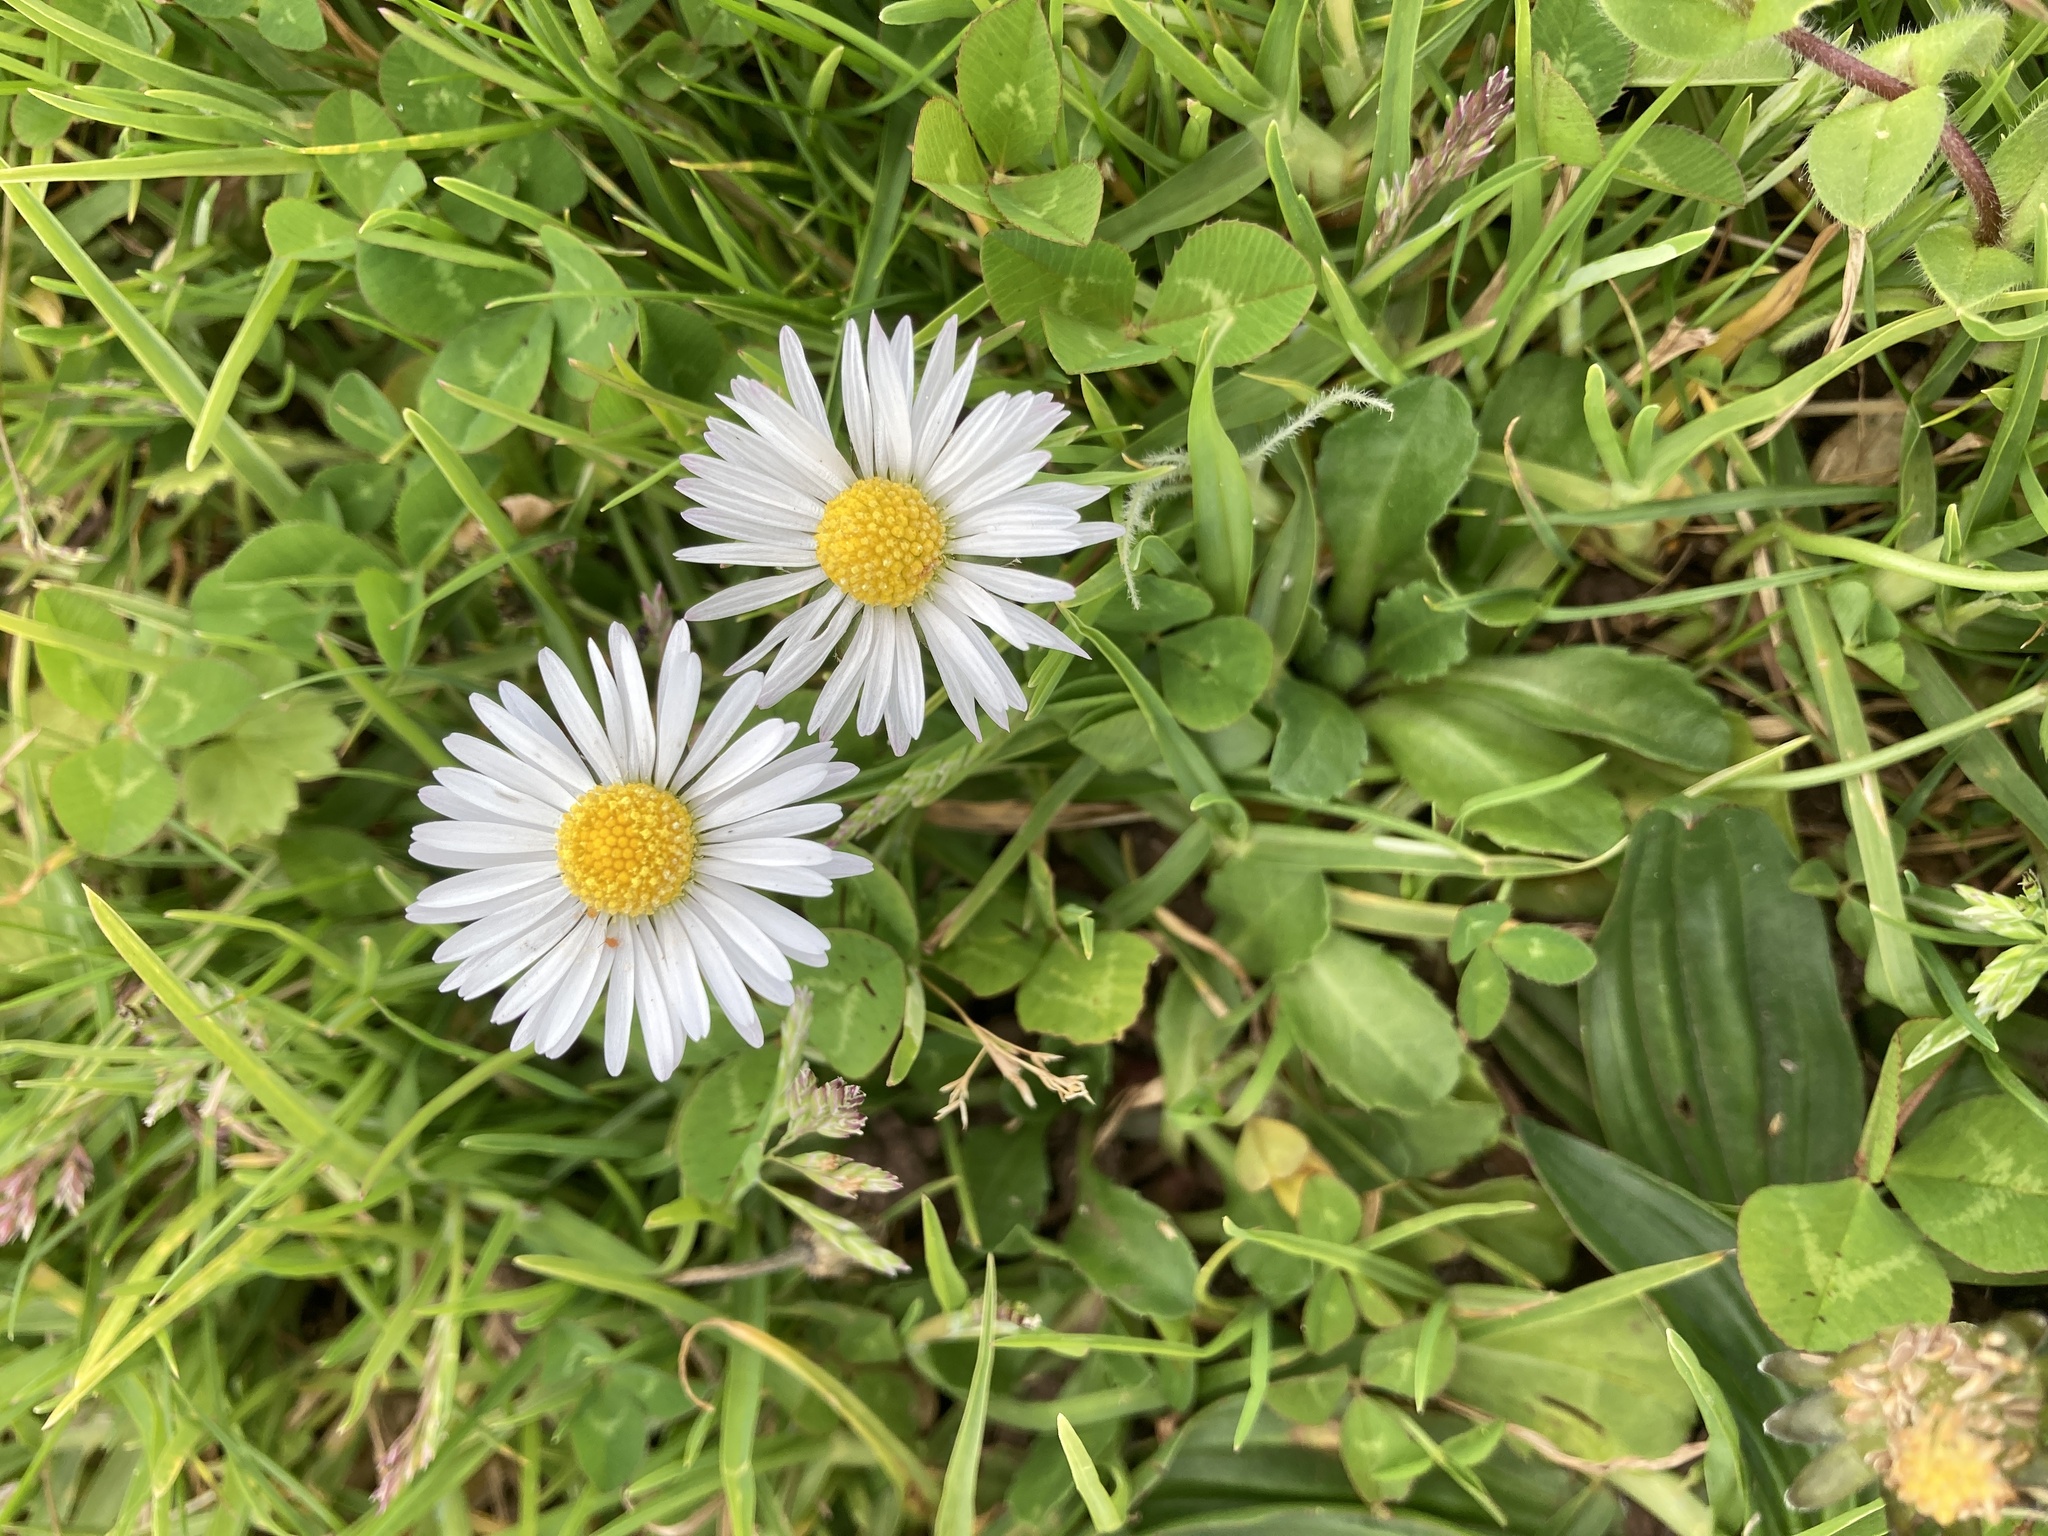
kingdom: Plantae
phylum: Tracheophyta
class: Magnoliopsida
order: Asterales
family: Asteraceae
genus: Bellis
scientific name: Bellis perennis
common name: Lawndaisy
